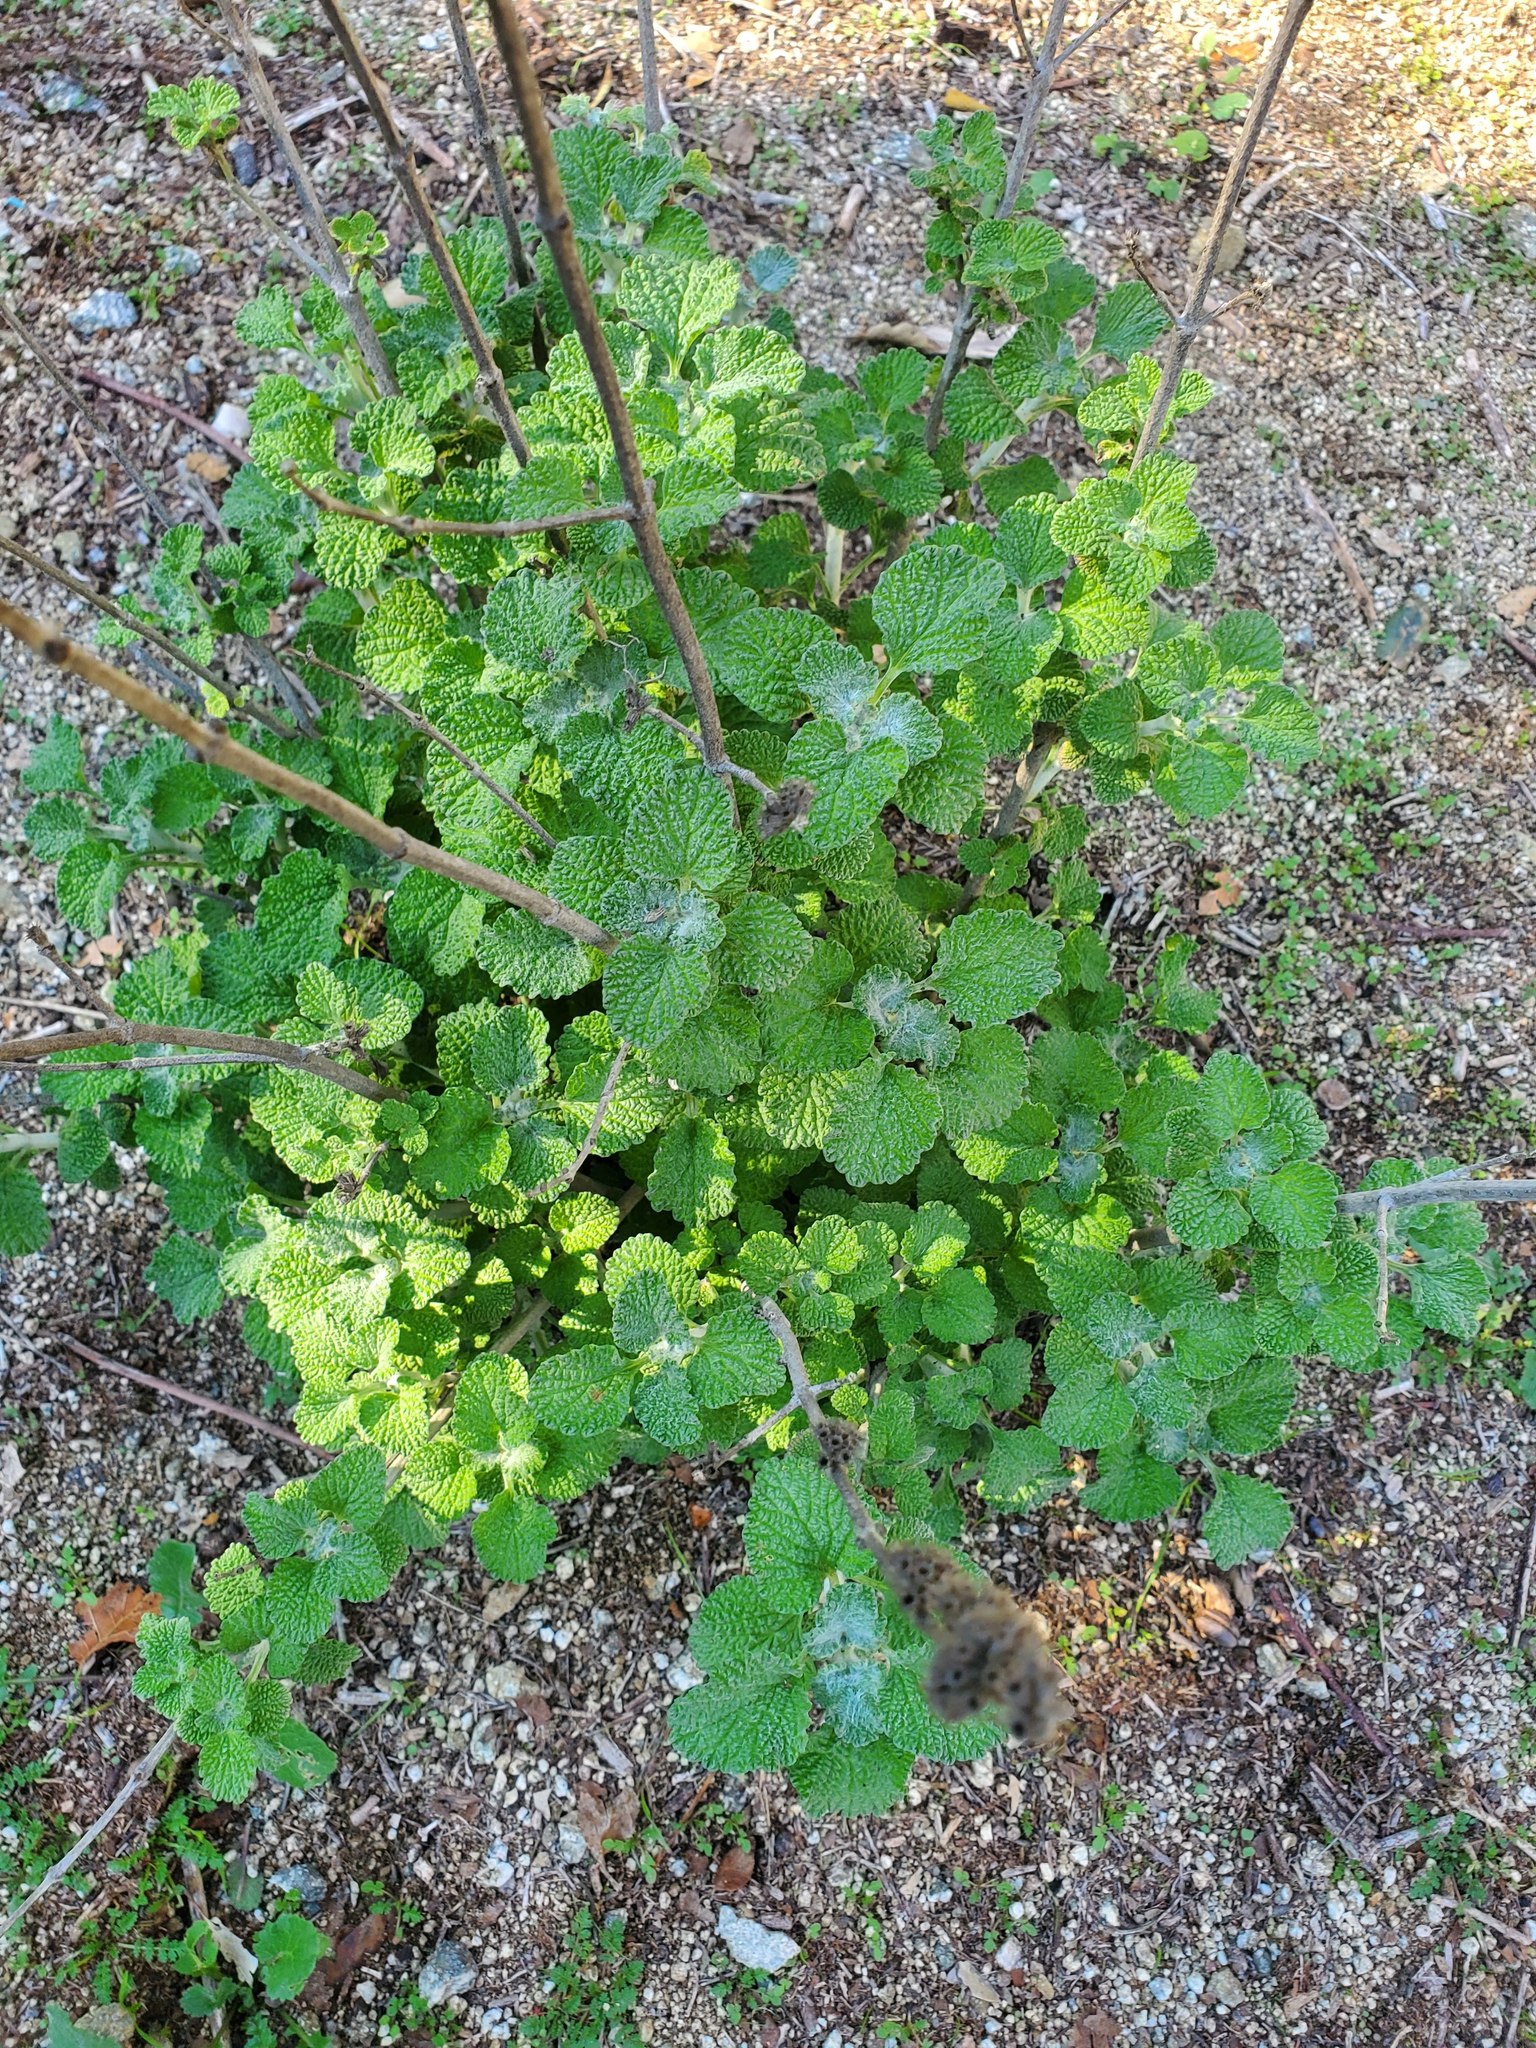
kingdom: Plantae
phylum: Tracheophyta
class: Magnoliopsida
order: Lamiales
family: Lamiaceae
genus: Marrubium
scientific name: Marrubium vulgare
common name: Horehound
